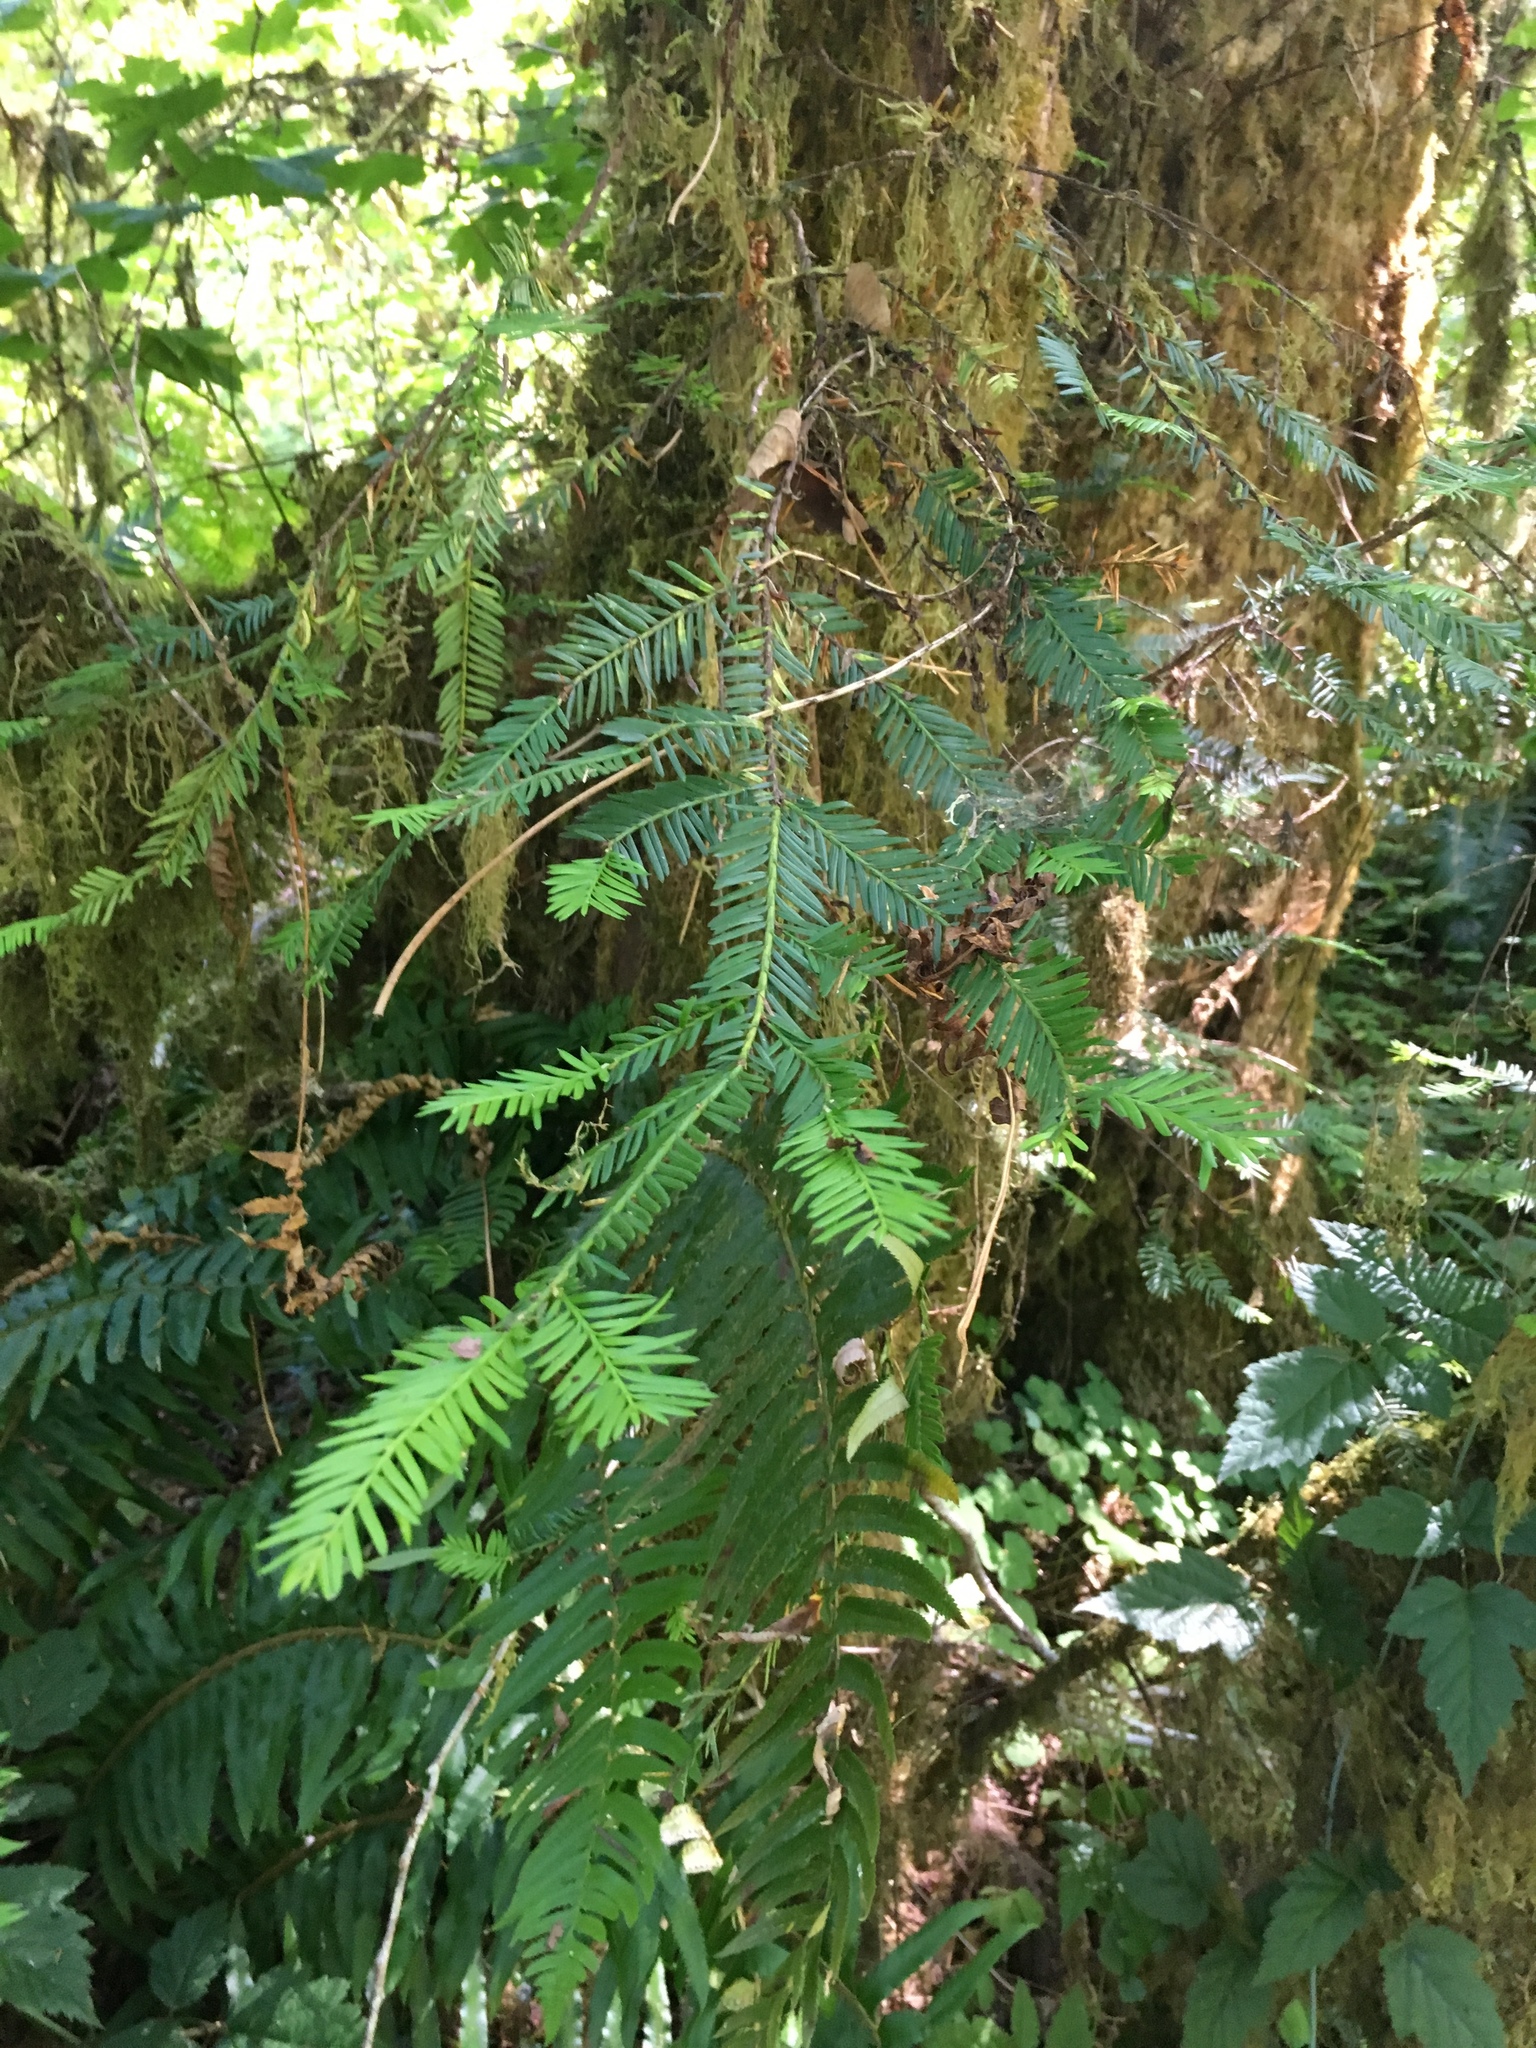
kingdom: Plantae
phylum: Tracheophyta
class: Pinopsida
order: Pinales
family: Taxaceae
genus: Taxus
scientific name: Taxus brevifolia
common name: Pacific yew
